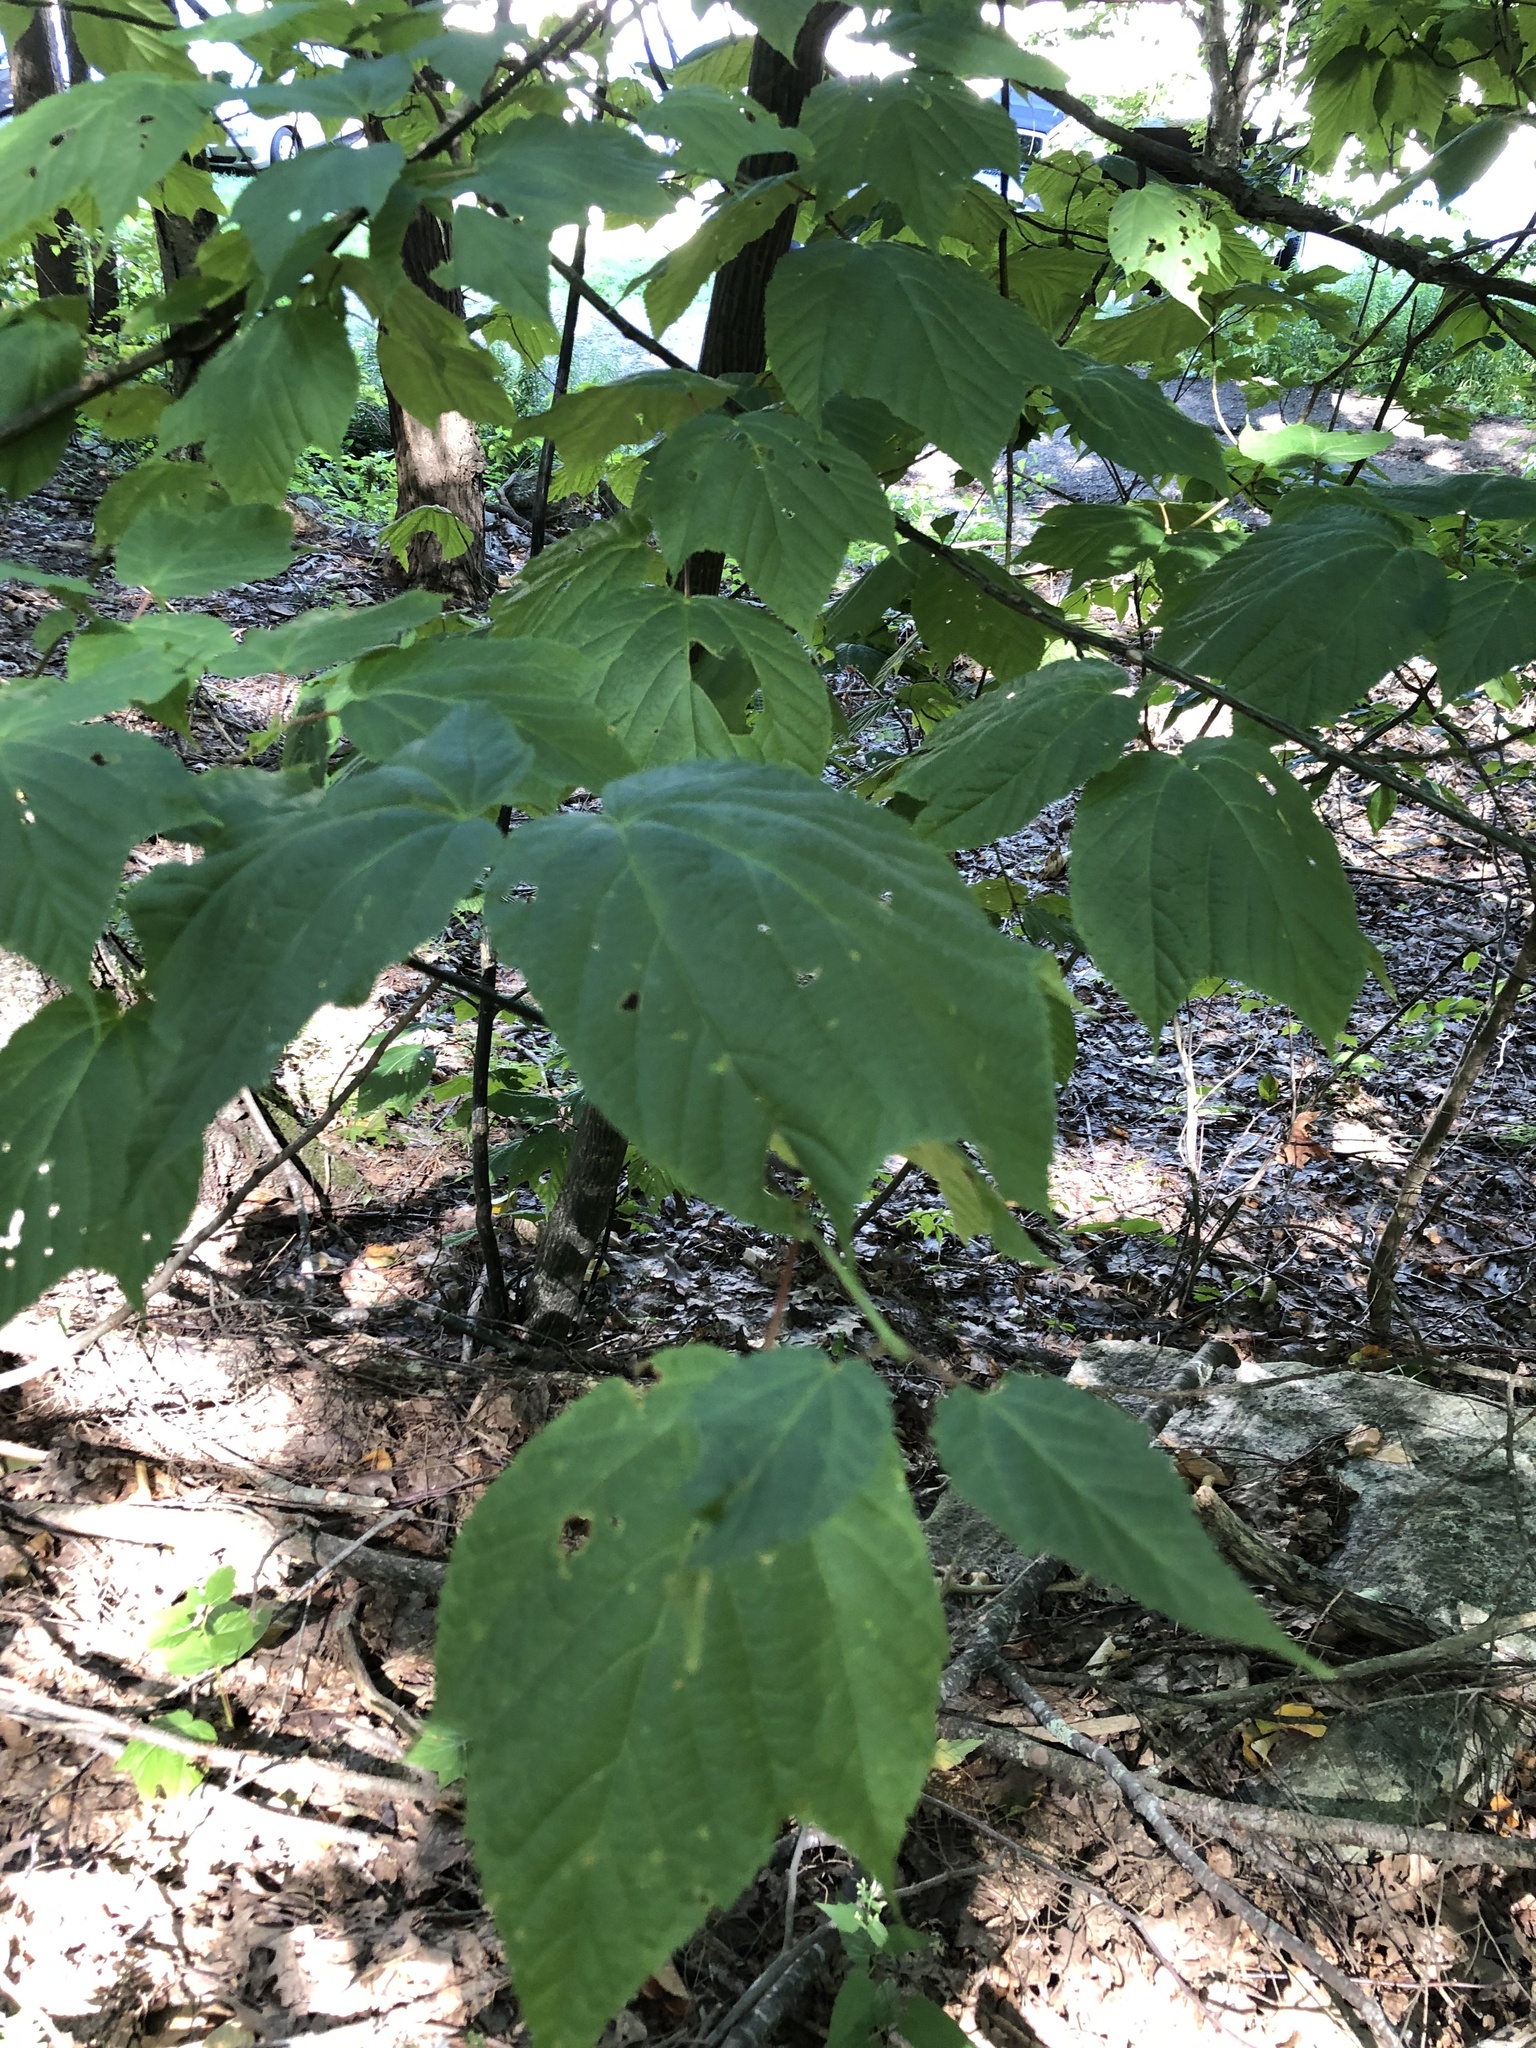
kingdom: Plantae
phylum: Tracheophyta
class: Magnoliopsida
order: Sapindales
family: Sapindaceae
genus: Acer
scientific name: Acer pensylvanicum
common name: Moosewood
